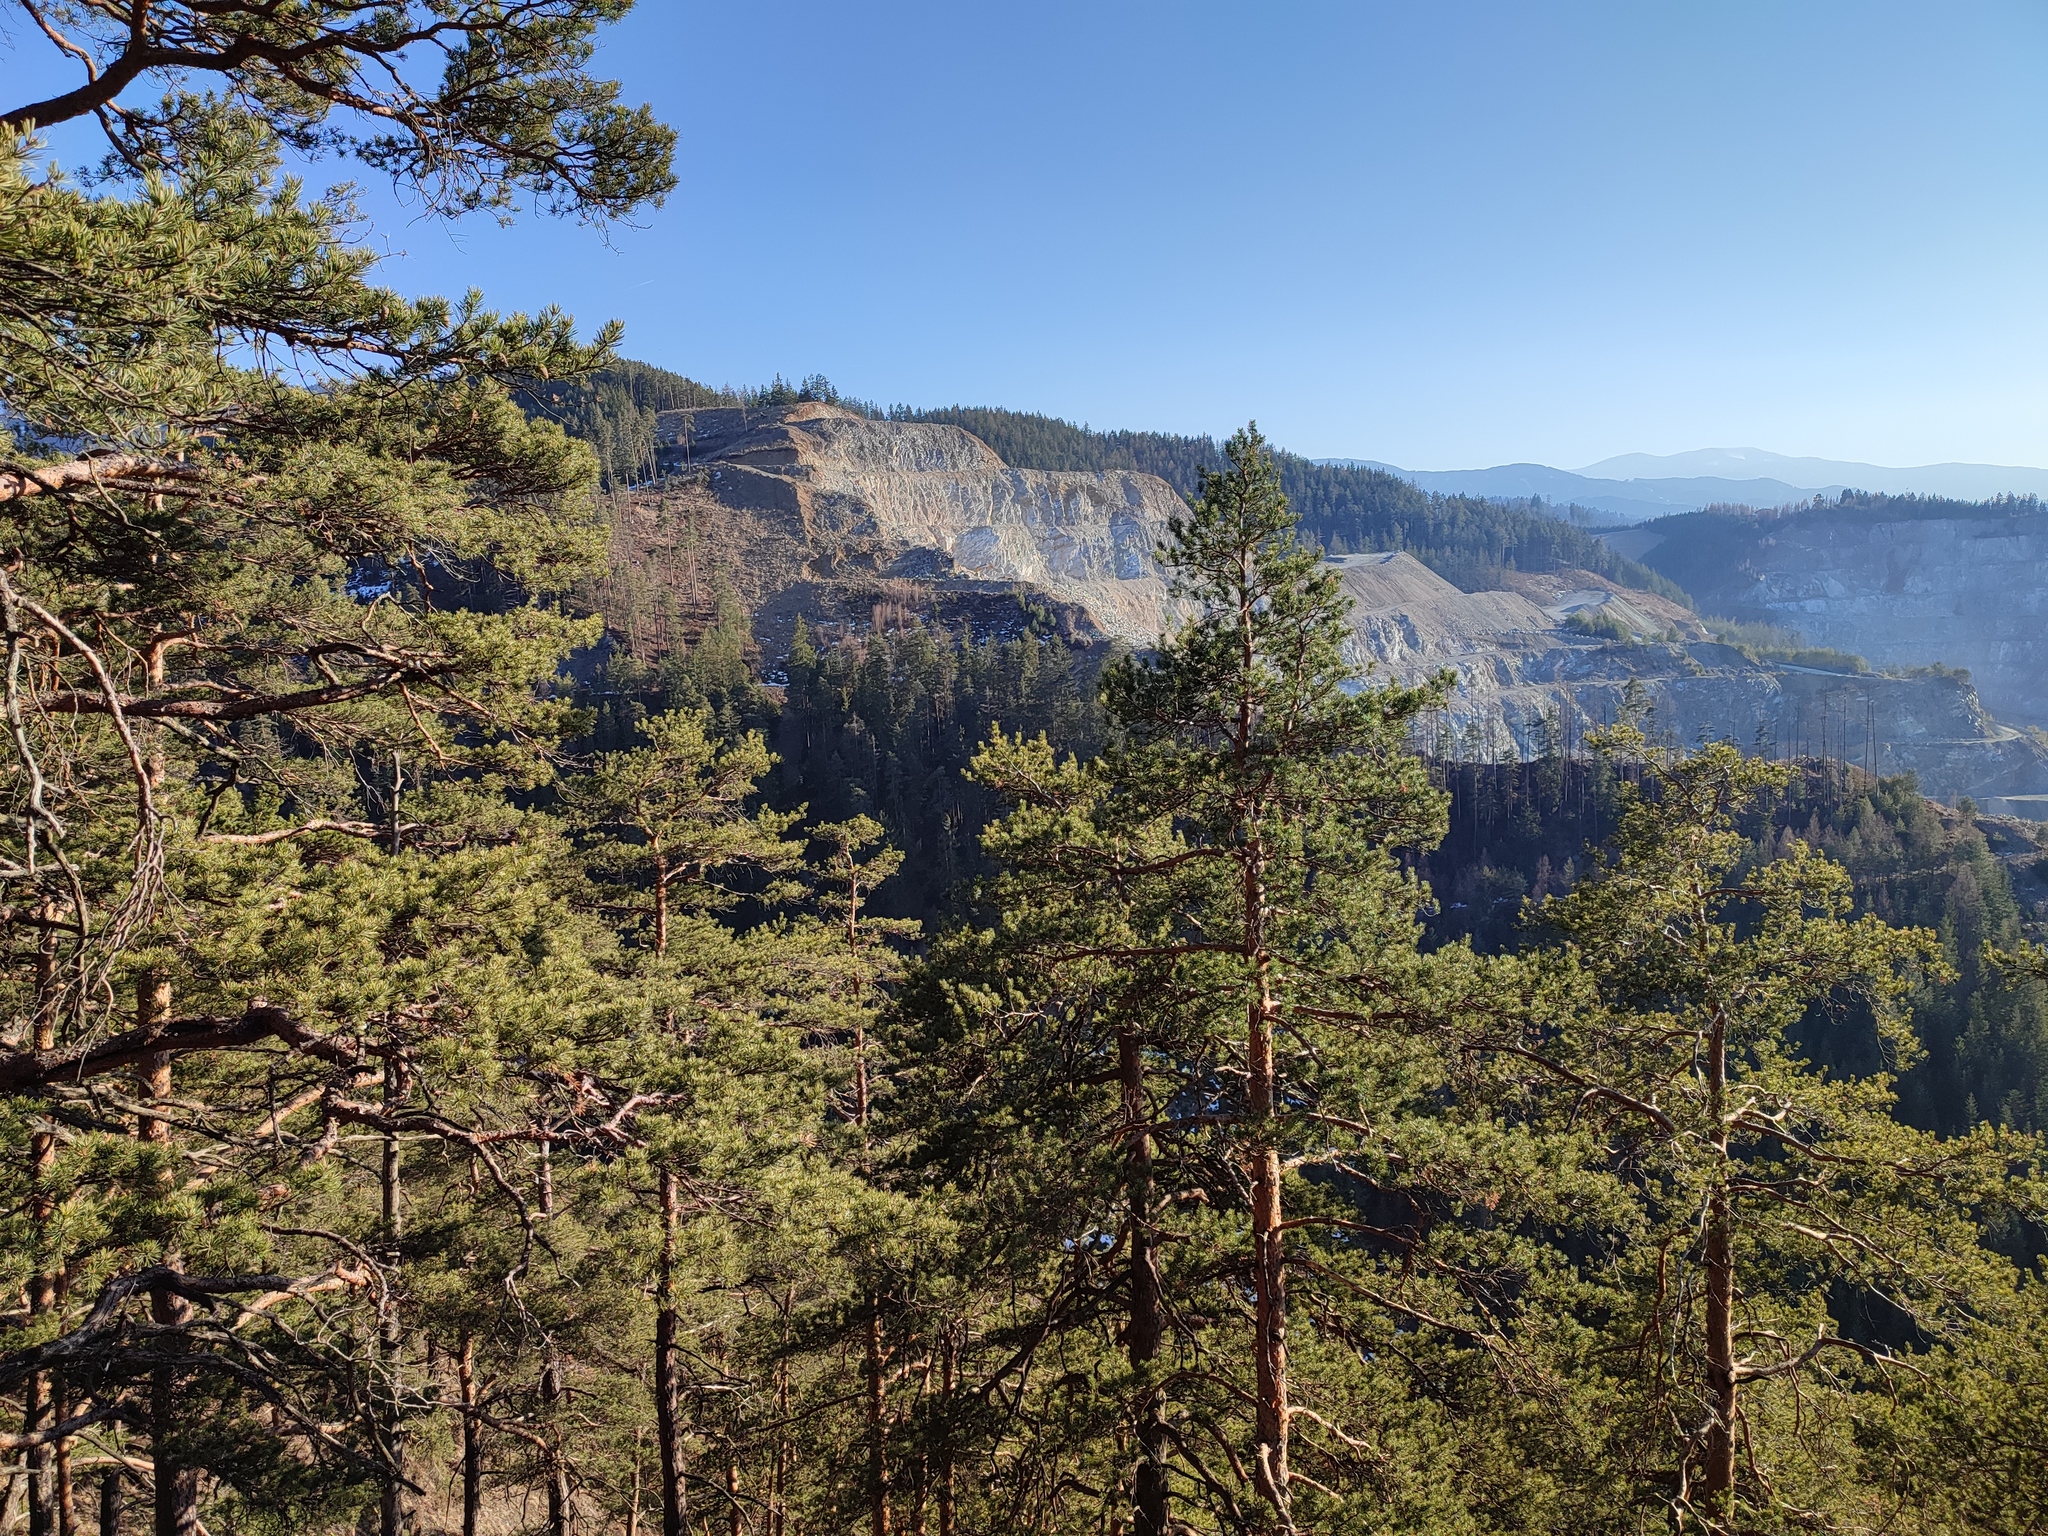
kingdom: Plantae
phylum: Tracheophyta
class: Pinopsida
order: Pinales
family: Pinaceae
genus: Pinus
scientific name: Pinus sylvestris
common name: Scots pine
